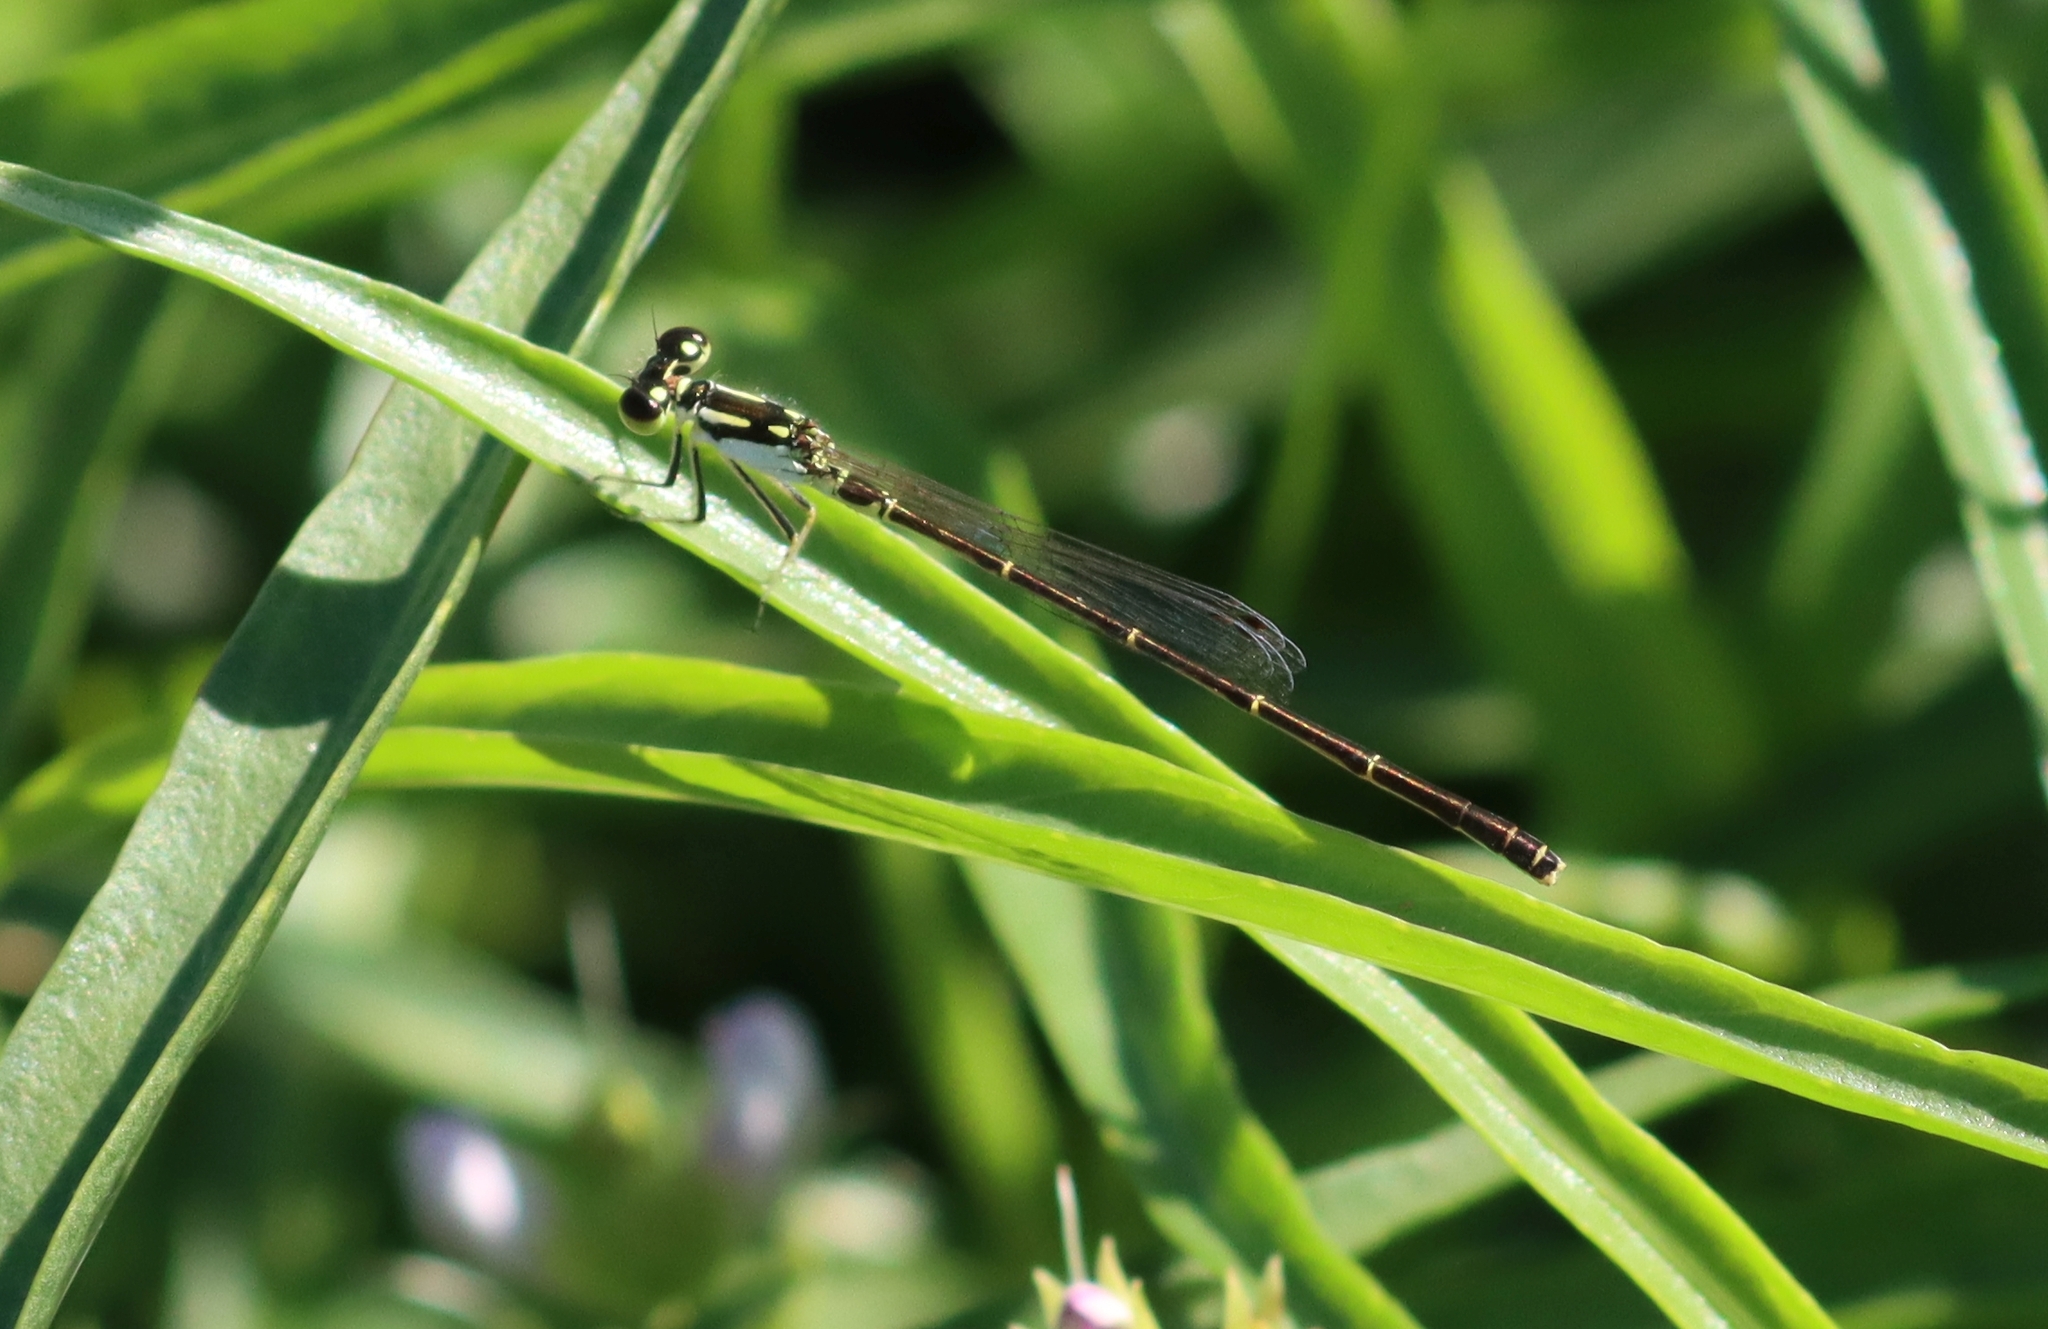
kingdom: Animalia
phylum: Arthropoda
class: Insecta
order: Odonata
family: Coenagrionidae
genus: Ischnura
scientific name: Ischnura posita
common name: Fragile forktail
